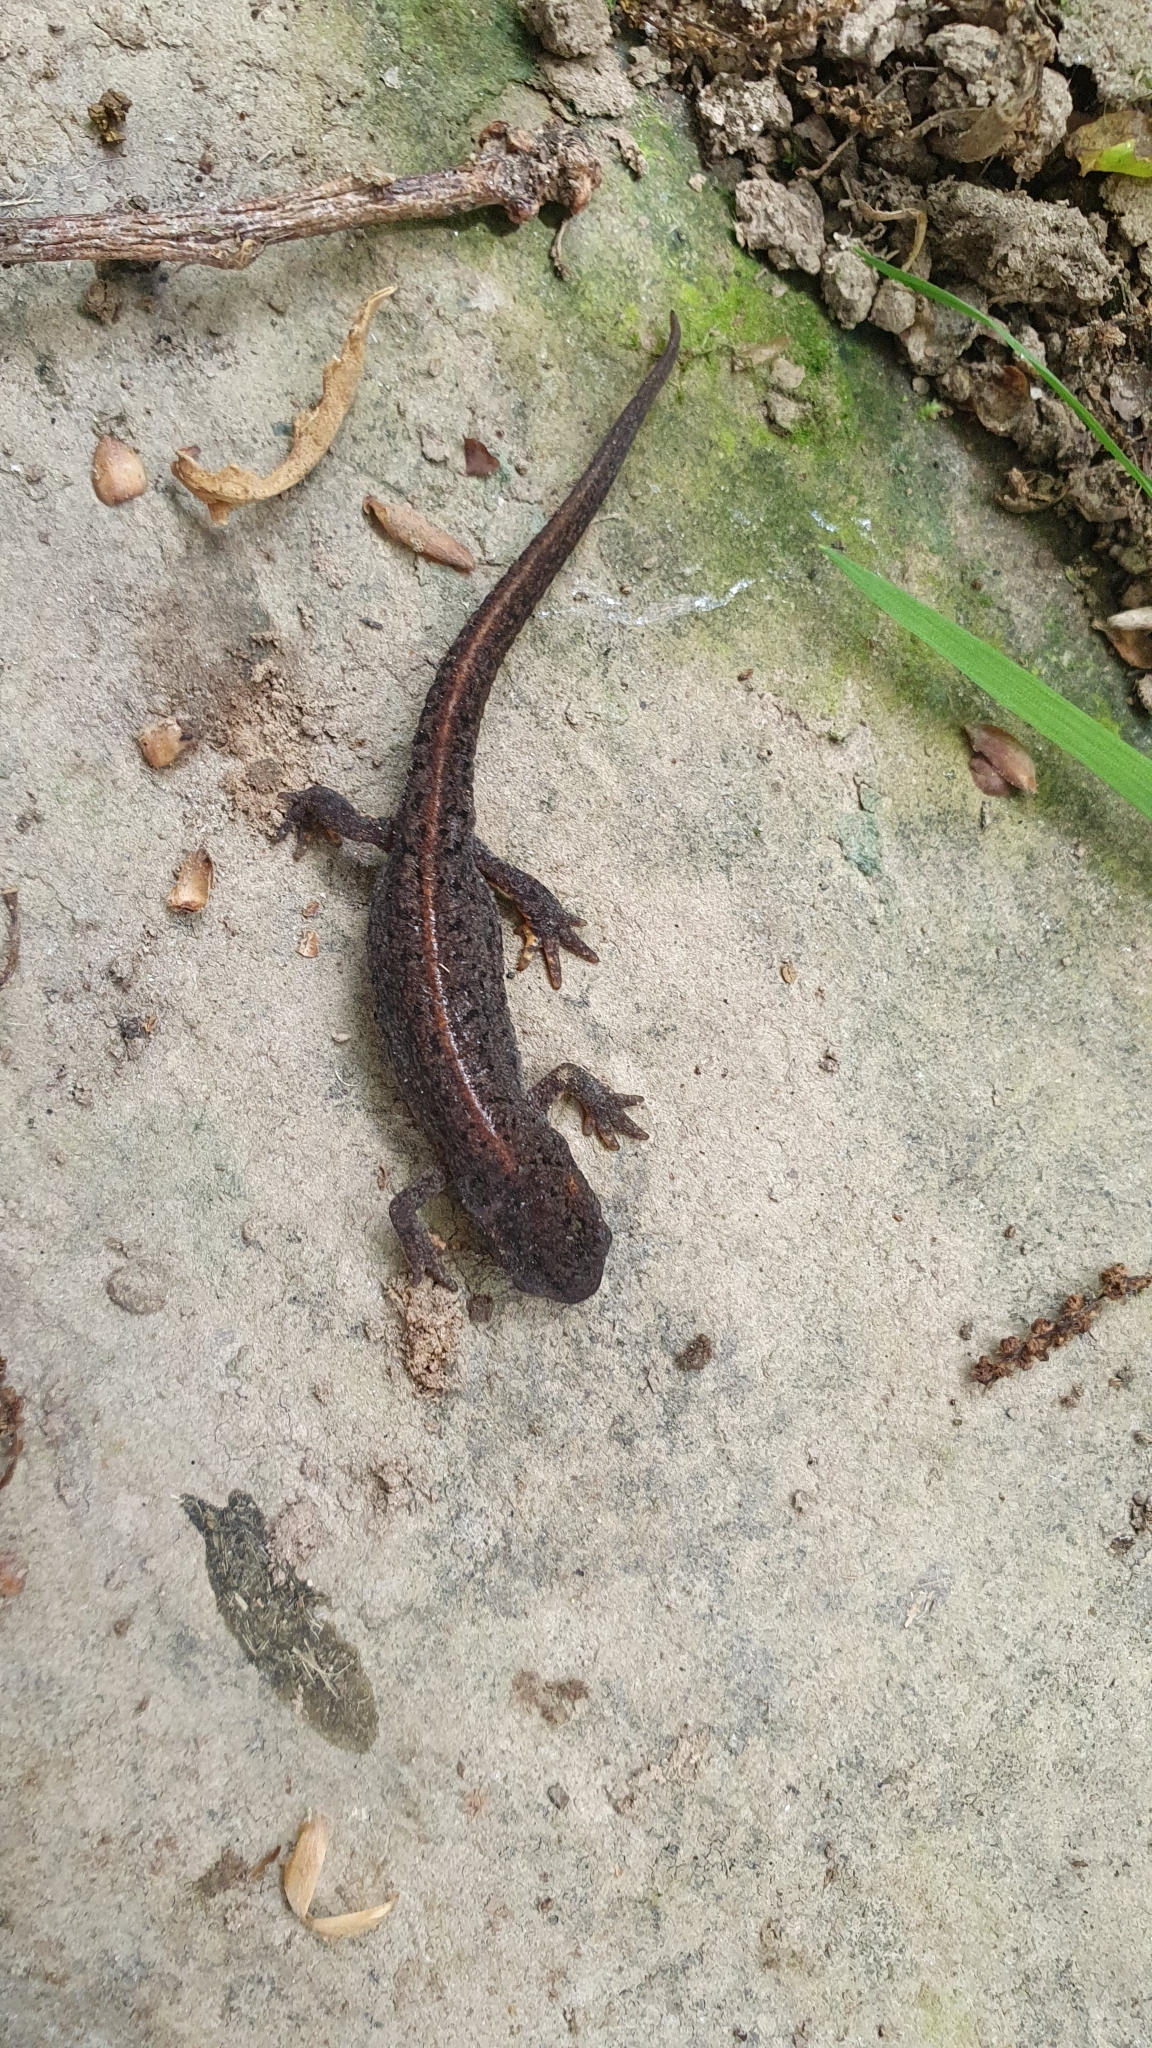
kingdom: Animalia
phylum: Chordata
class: Amphibia
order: Caudata
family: Salamandridae
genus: Lissotriton
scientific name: Lissotriton boscai
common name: Bosca's newt
